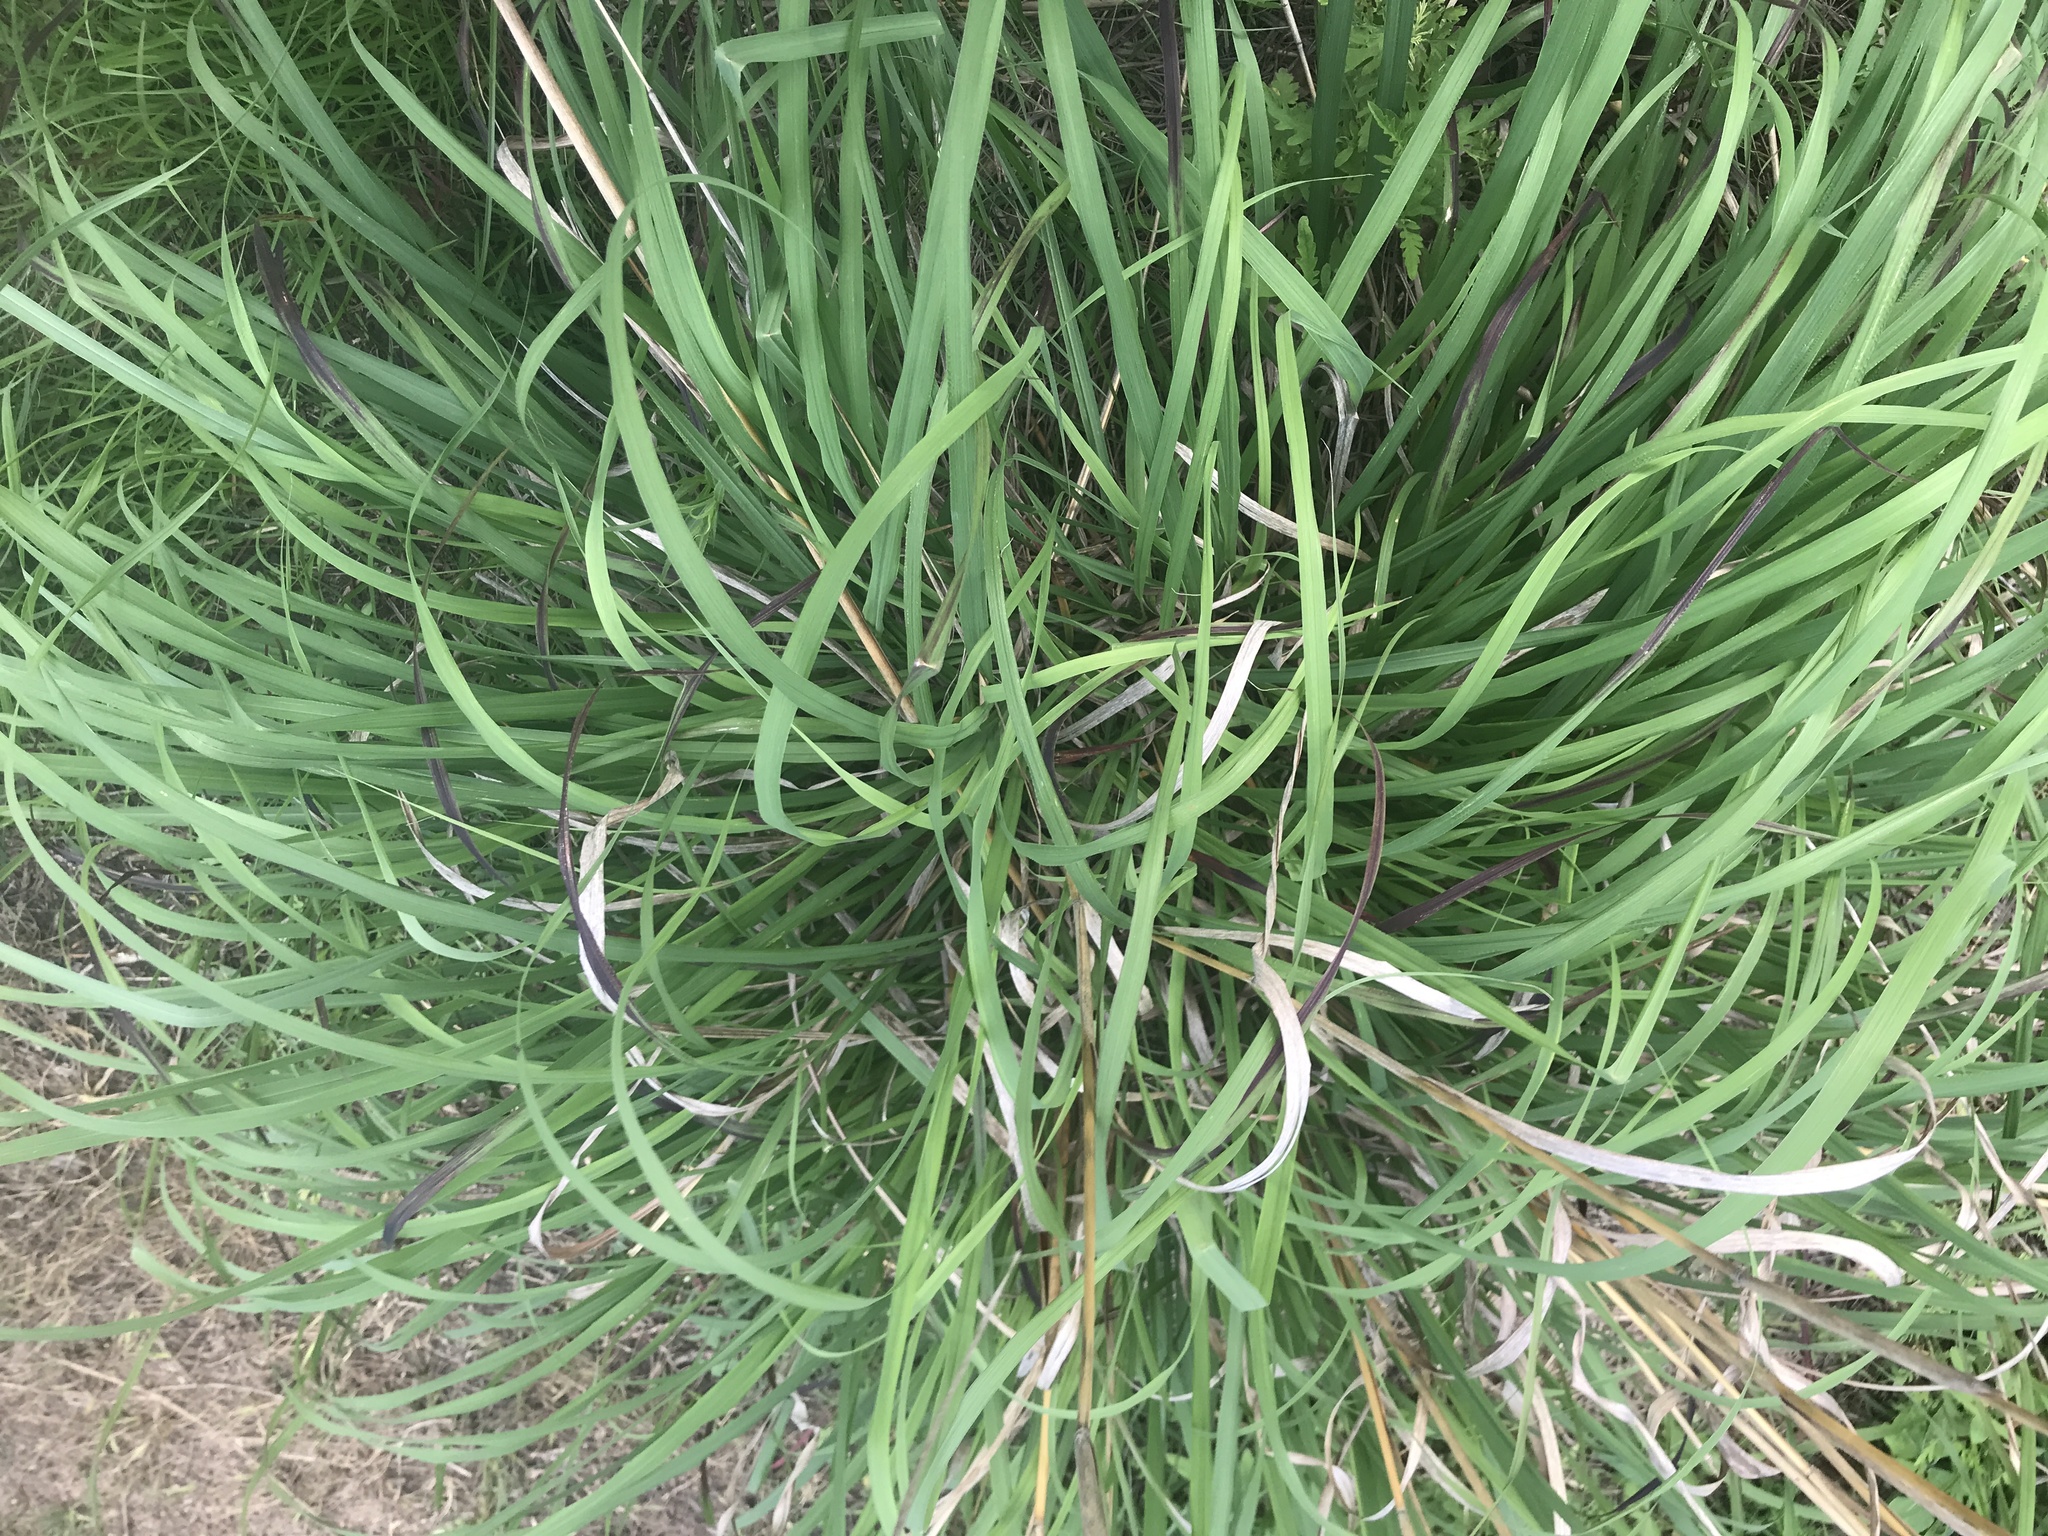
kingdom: Plantae
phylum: Tracheophyta
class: Liliopsida
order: Poales
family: Poaceae
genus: Andropogon
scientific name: Andropogon gerardi
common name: Big bluestem
